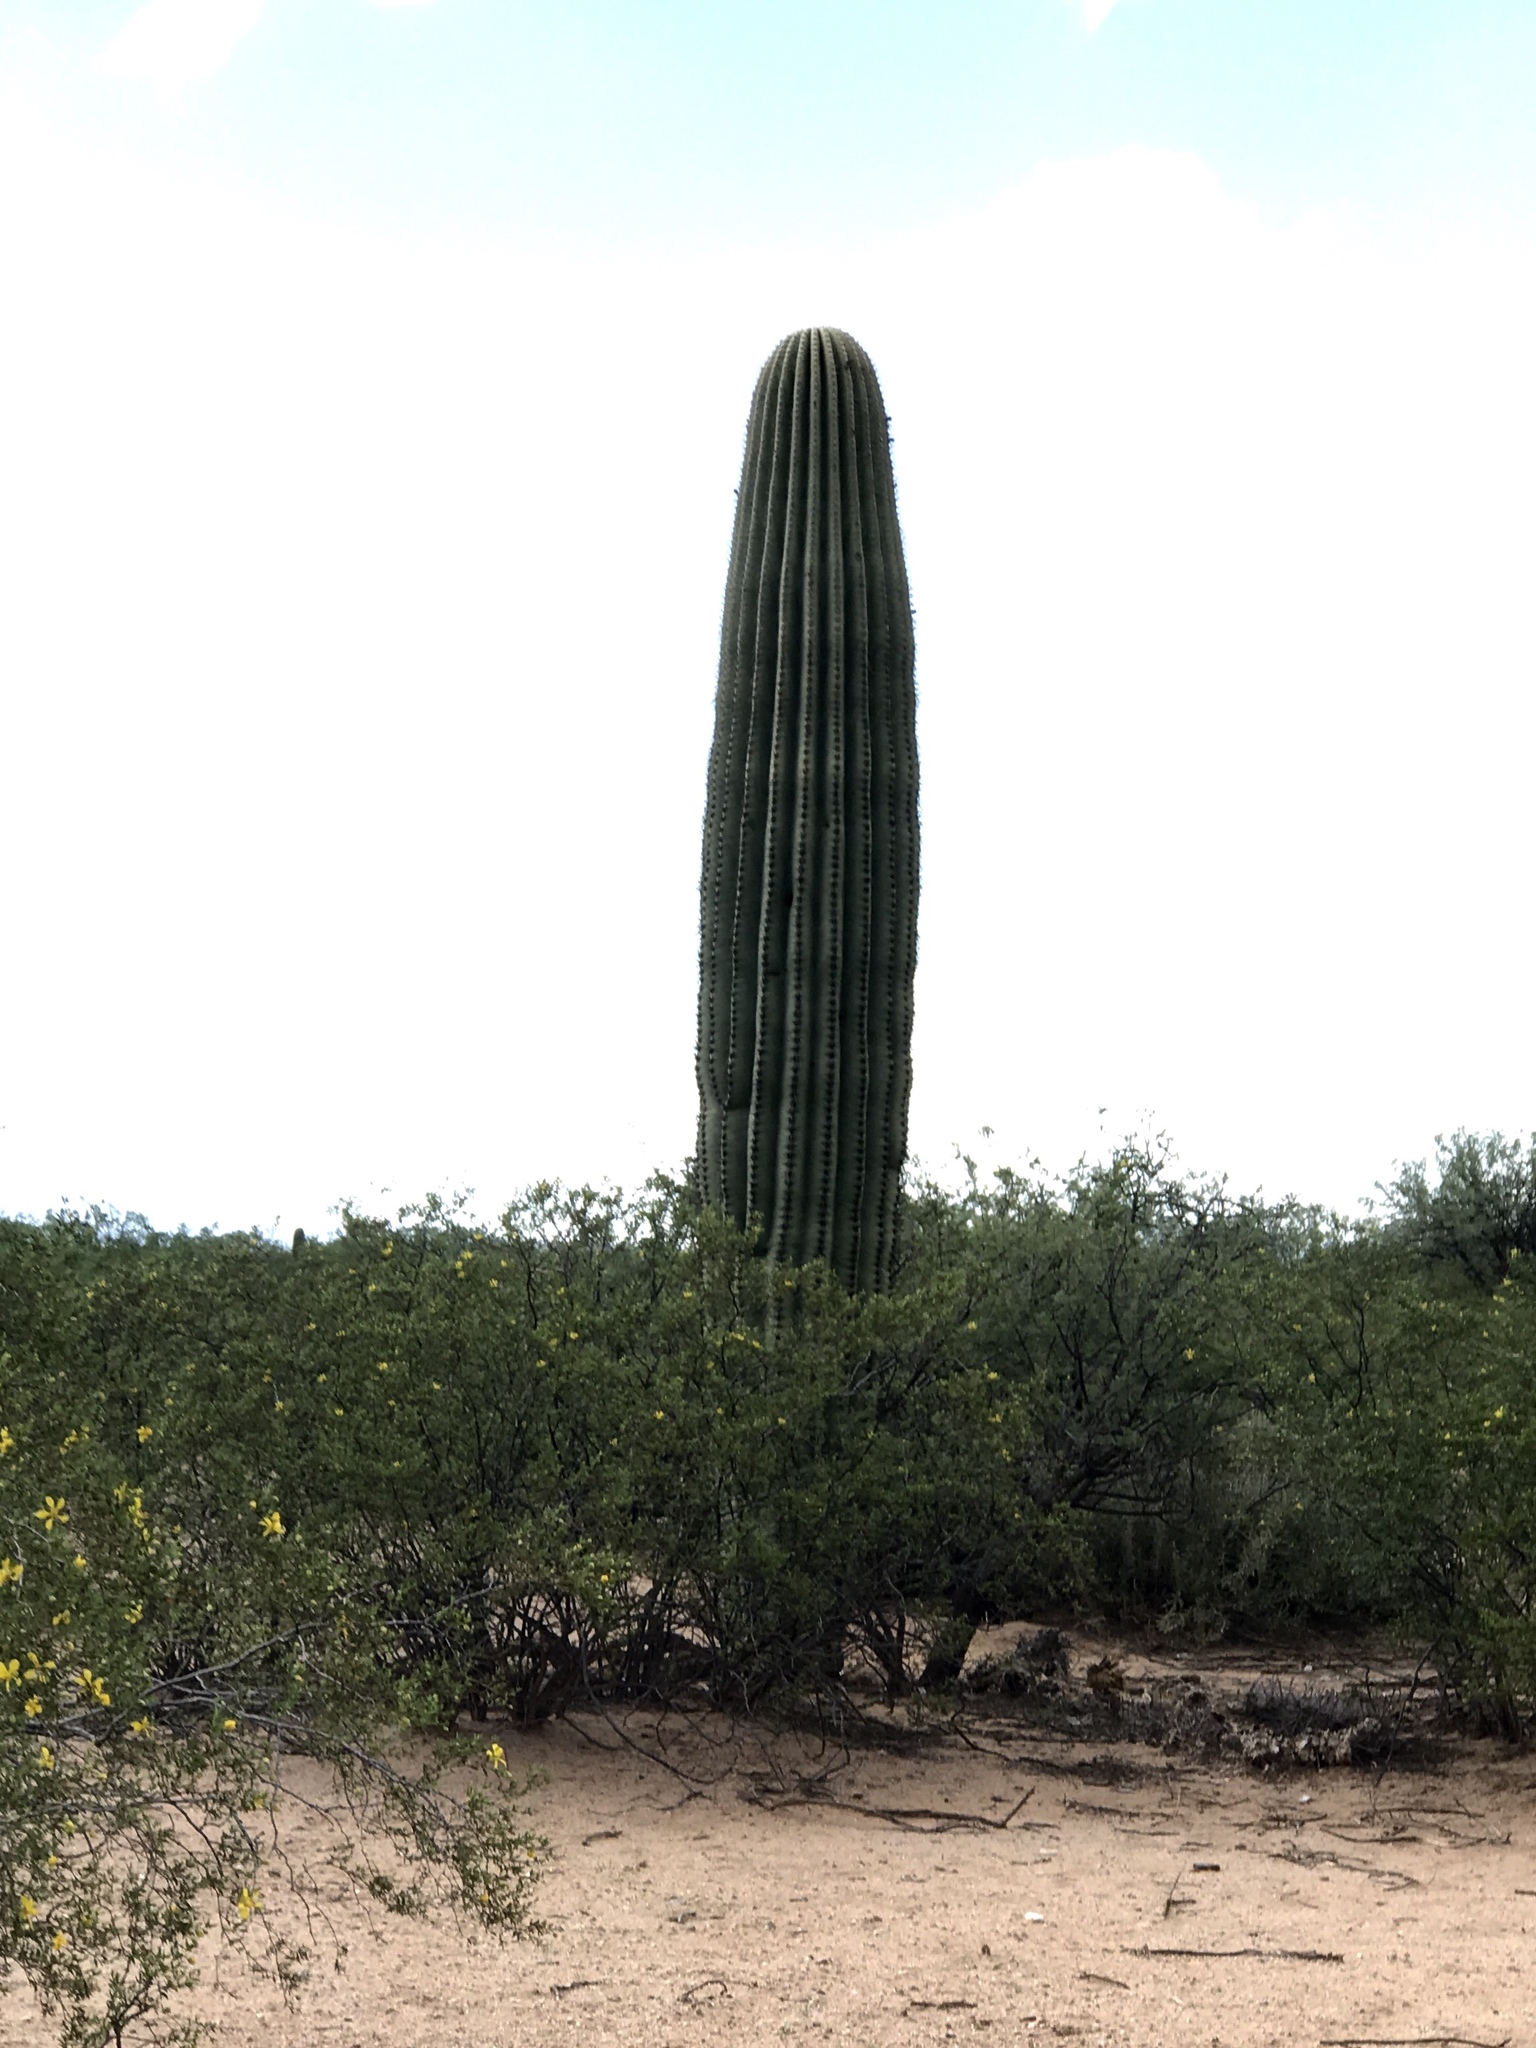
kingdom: Plantae
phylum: Tracheophyta
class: Magnoliopsida
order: Caryophyllales
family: Cactaceae
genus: Carnegiea
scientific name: Carnegiea gigantea
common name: Saguaro
